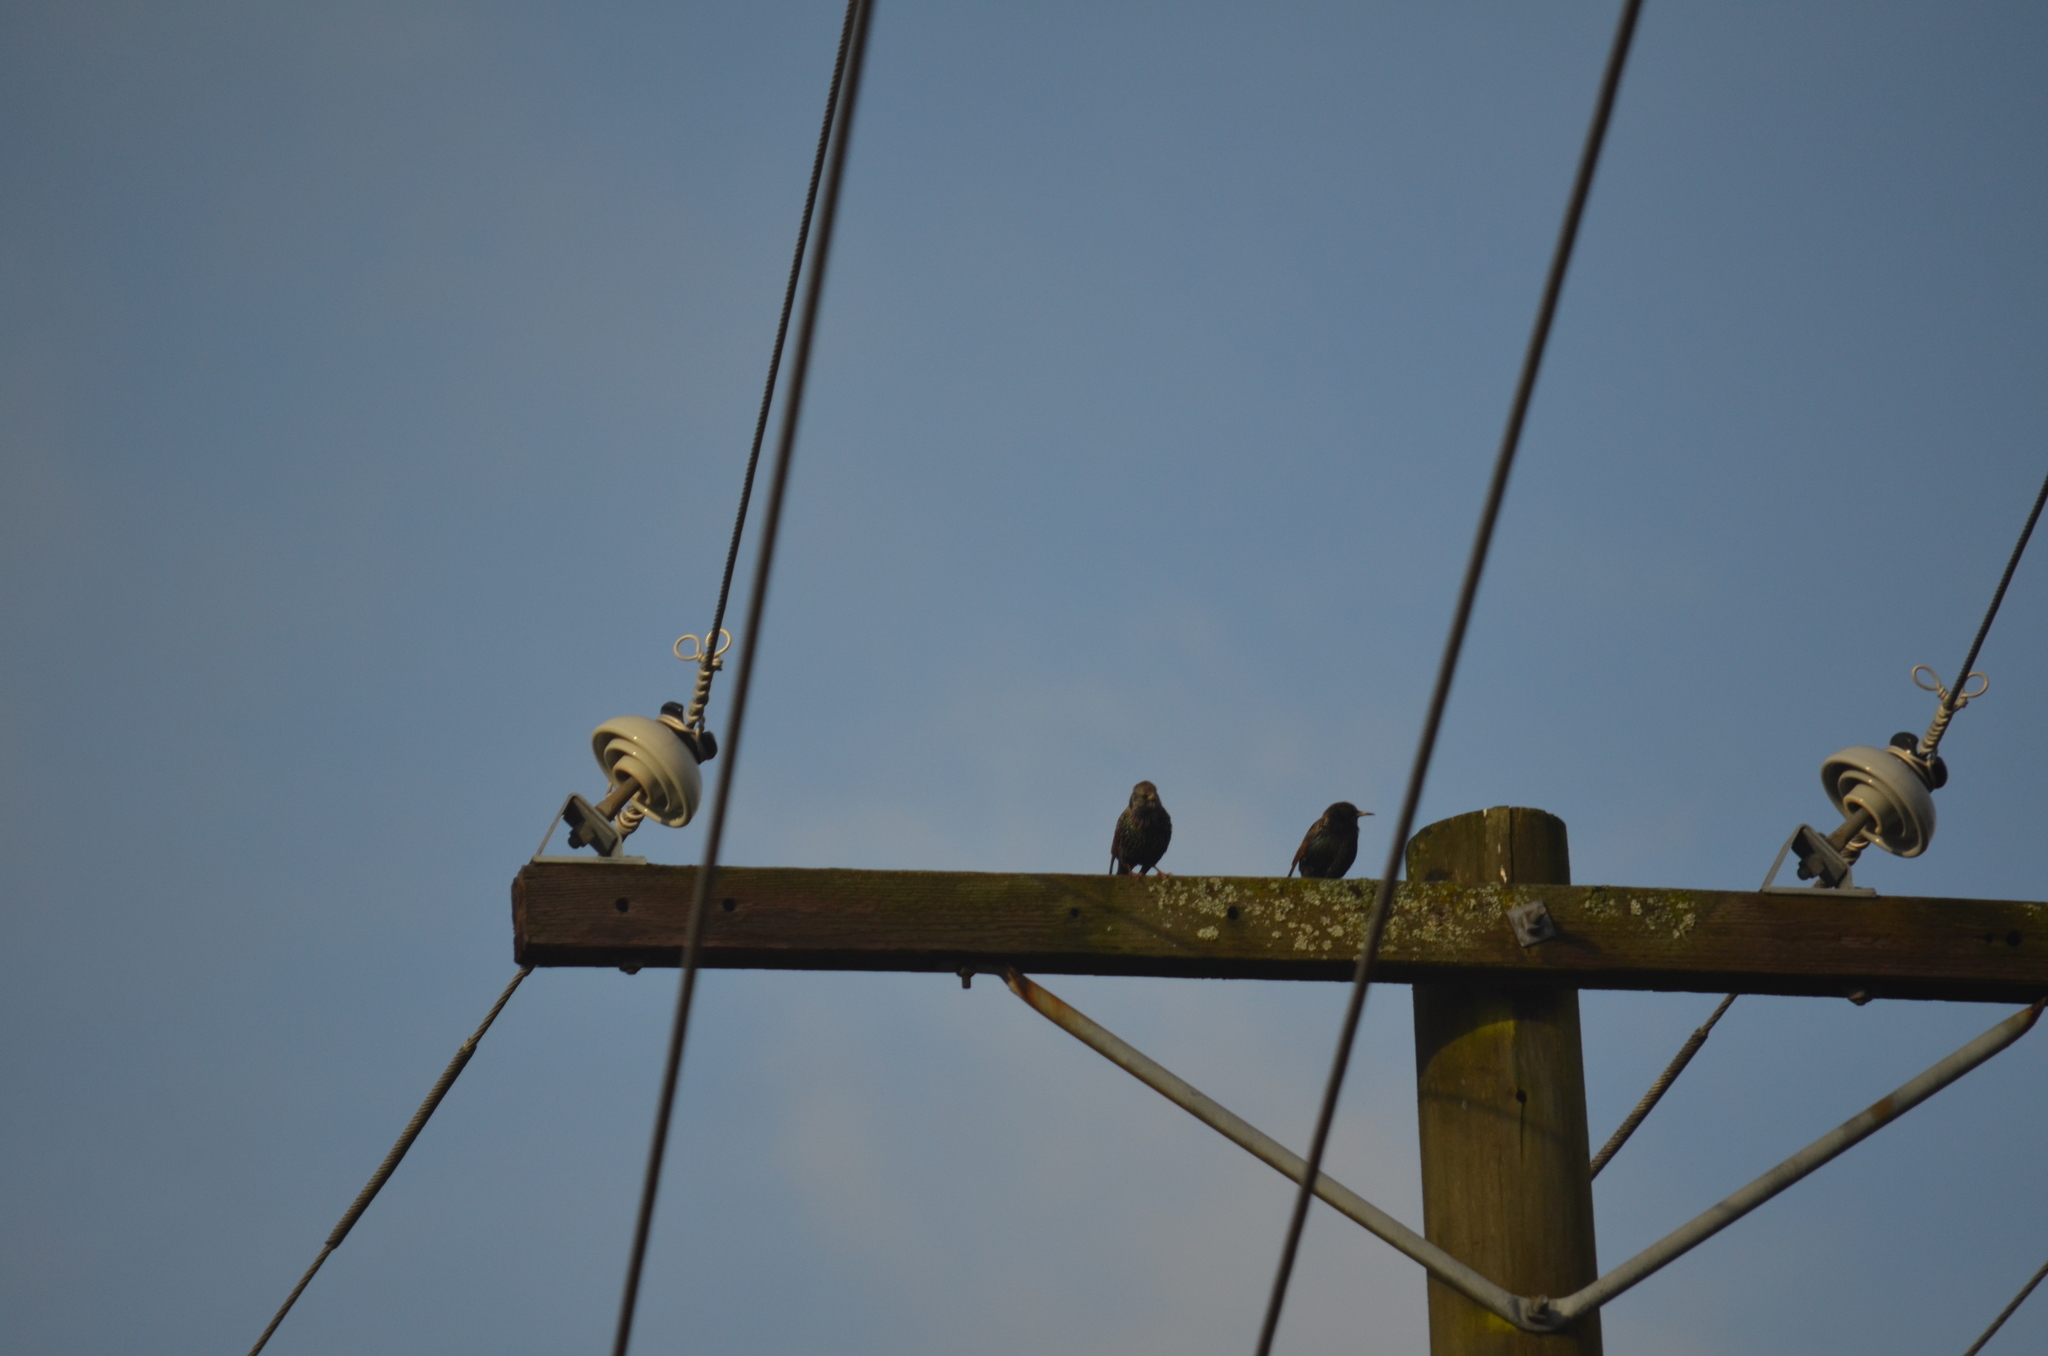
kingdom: Animalia
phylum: Chordata
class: Aves
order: Passeriformes
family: Sturnidae
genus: Sturnus
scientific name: Sturnus vulgaris
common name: Common starling
